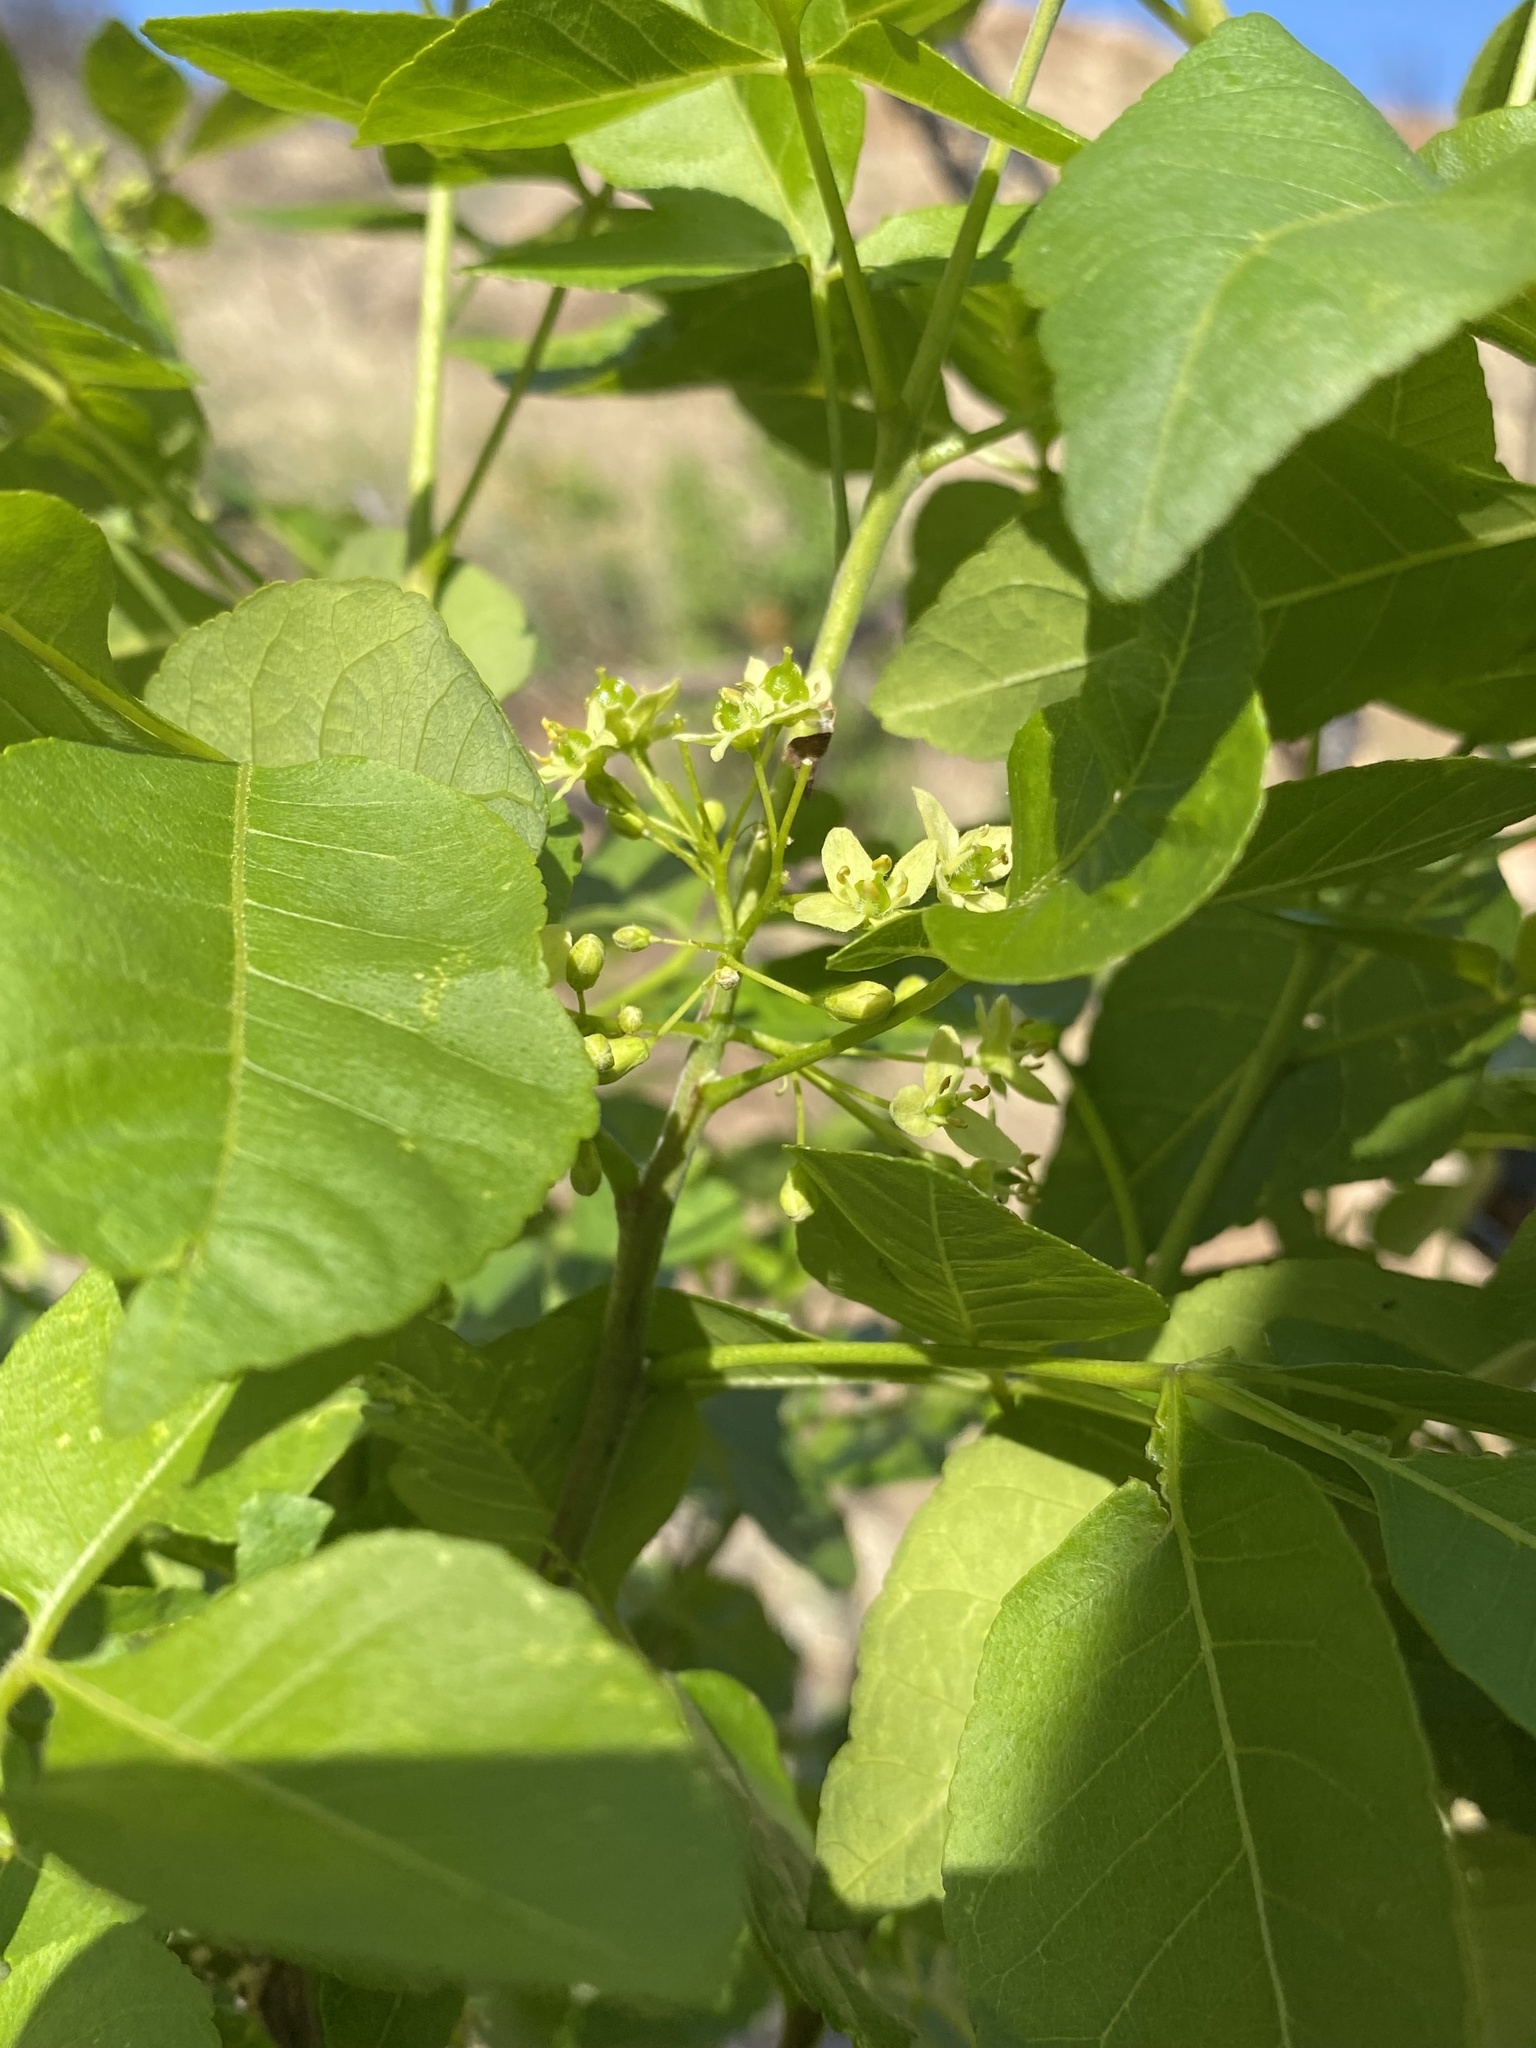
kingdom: Plantae
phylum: Tracheophyta
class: Magnoliopsida
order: Sapindales
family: Rutaceae
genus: Ptelea
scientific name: Ptelea trifoliata
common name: Common hop-tree
